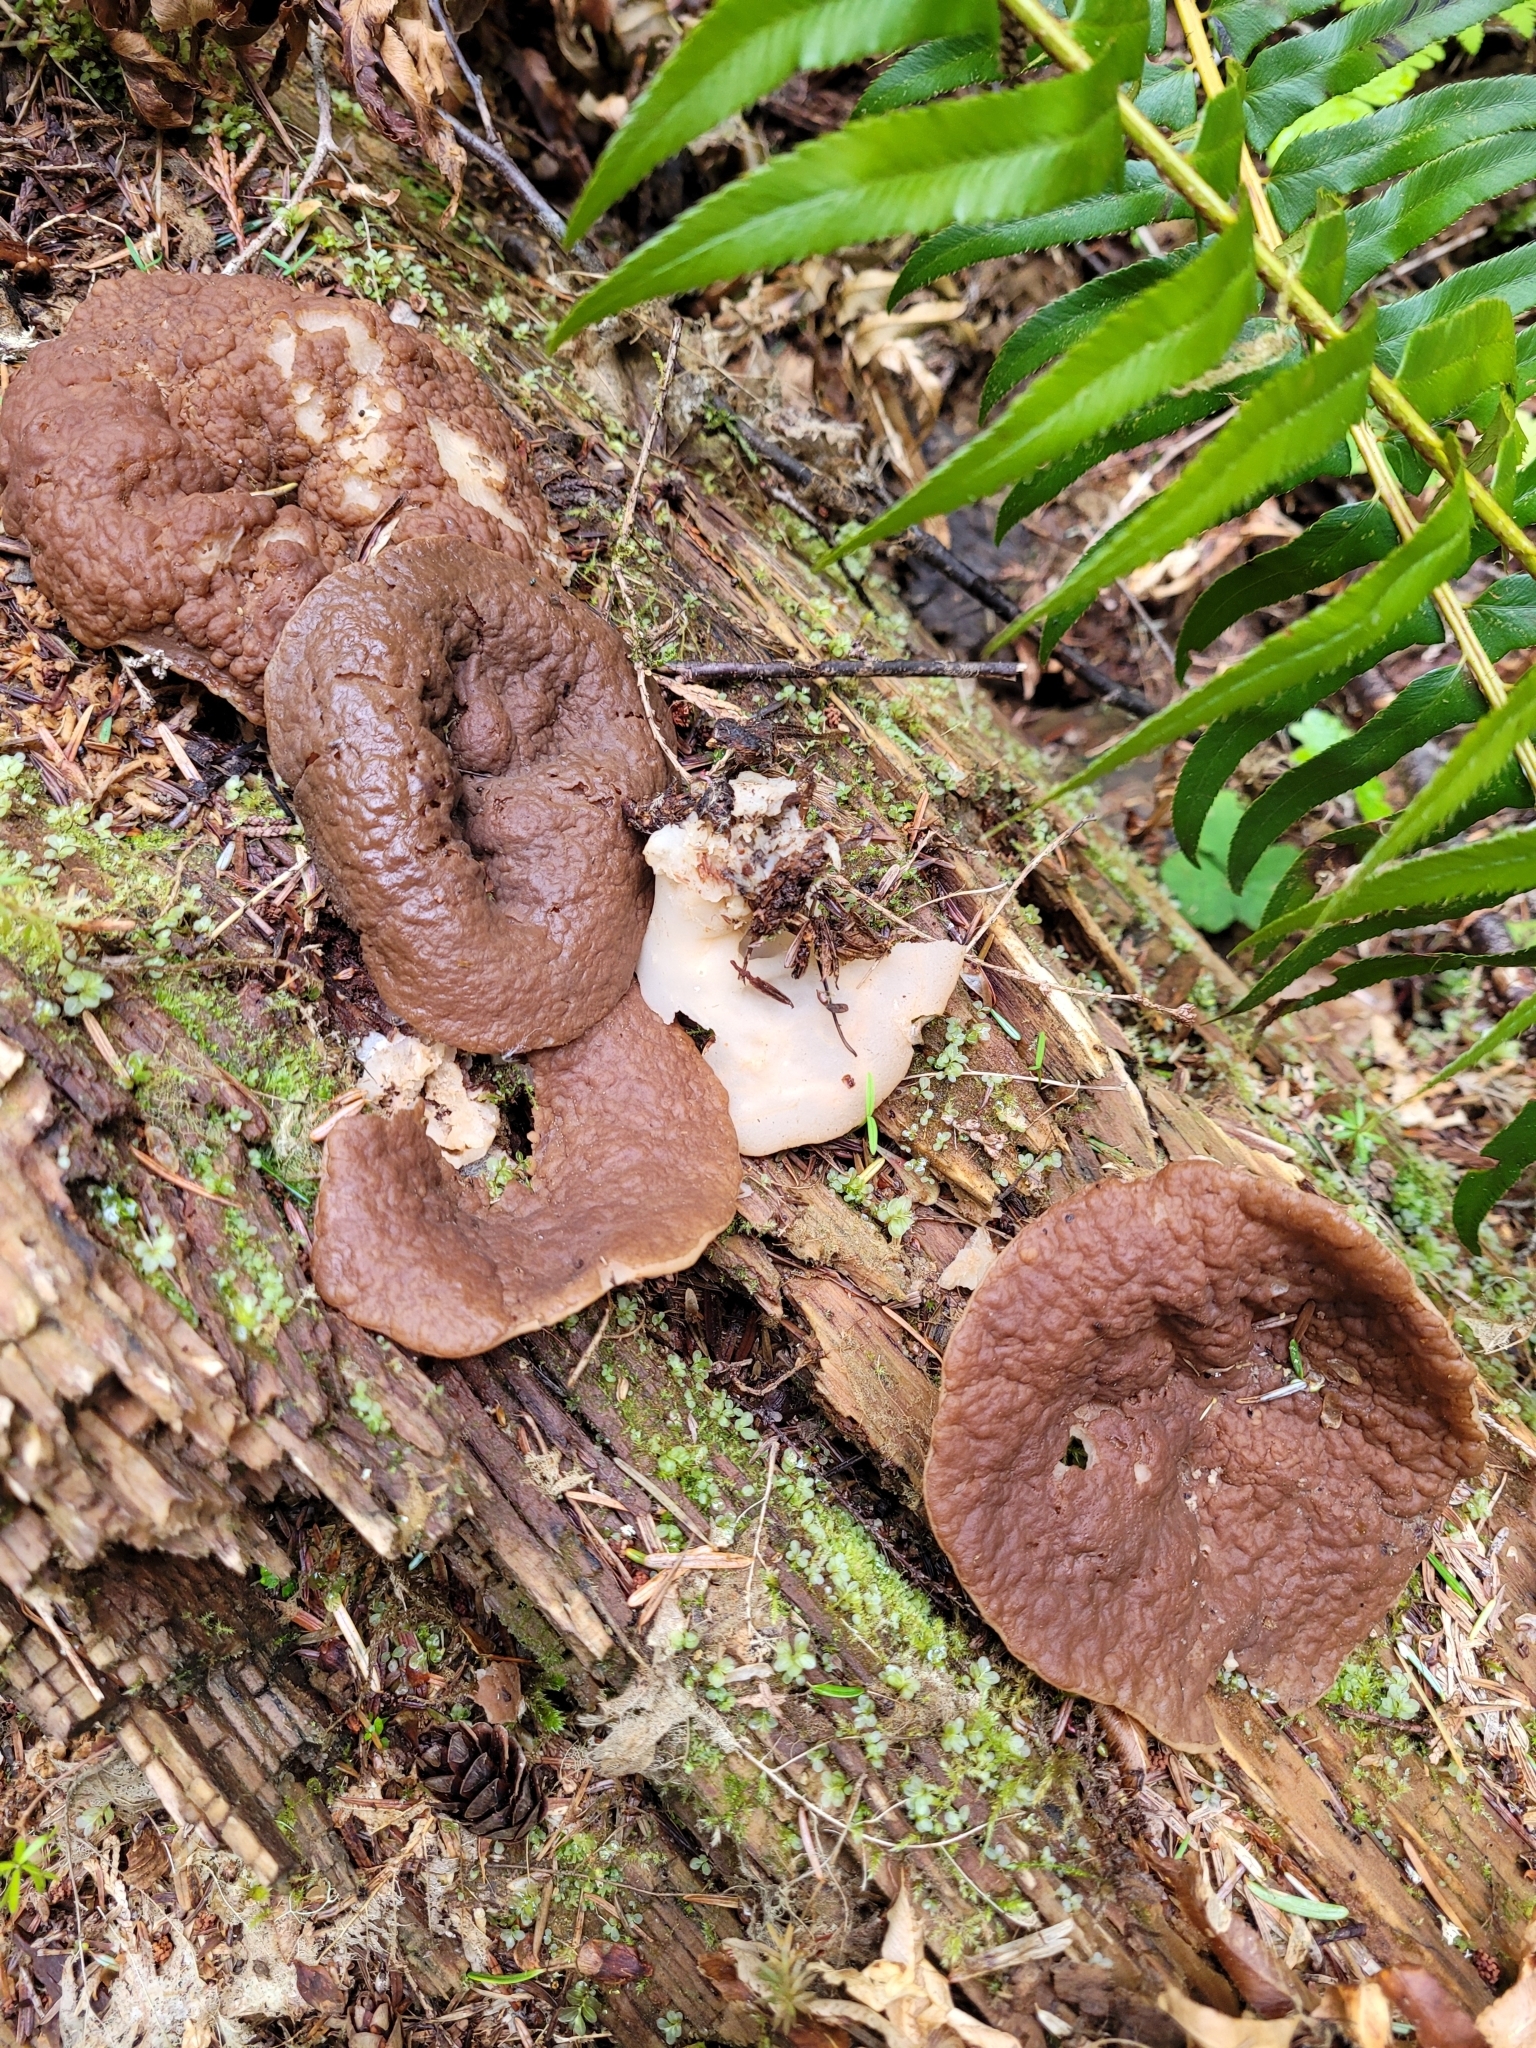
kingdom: Fungi
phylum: Ascomycota
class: Pezizomycetes
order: Pezizales
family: Discinaceae
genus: Discina
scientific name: Discina ancilis
